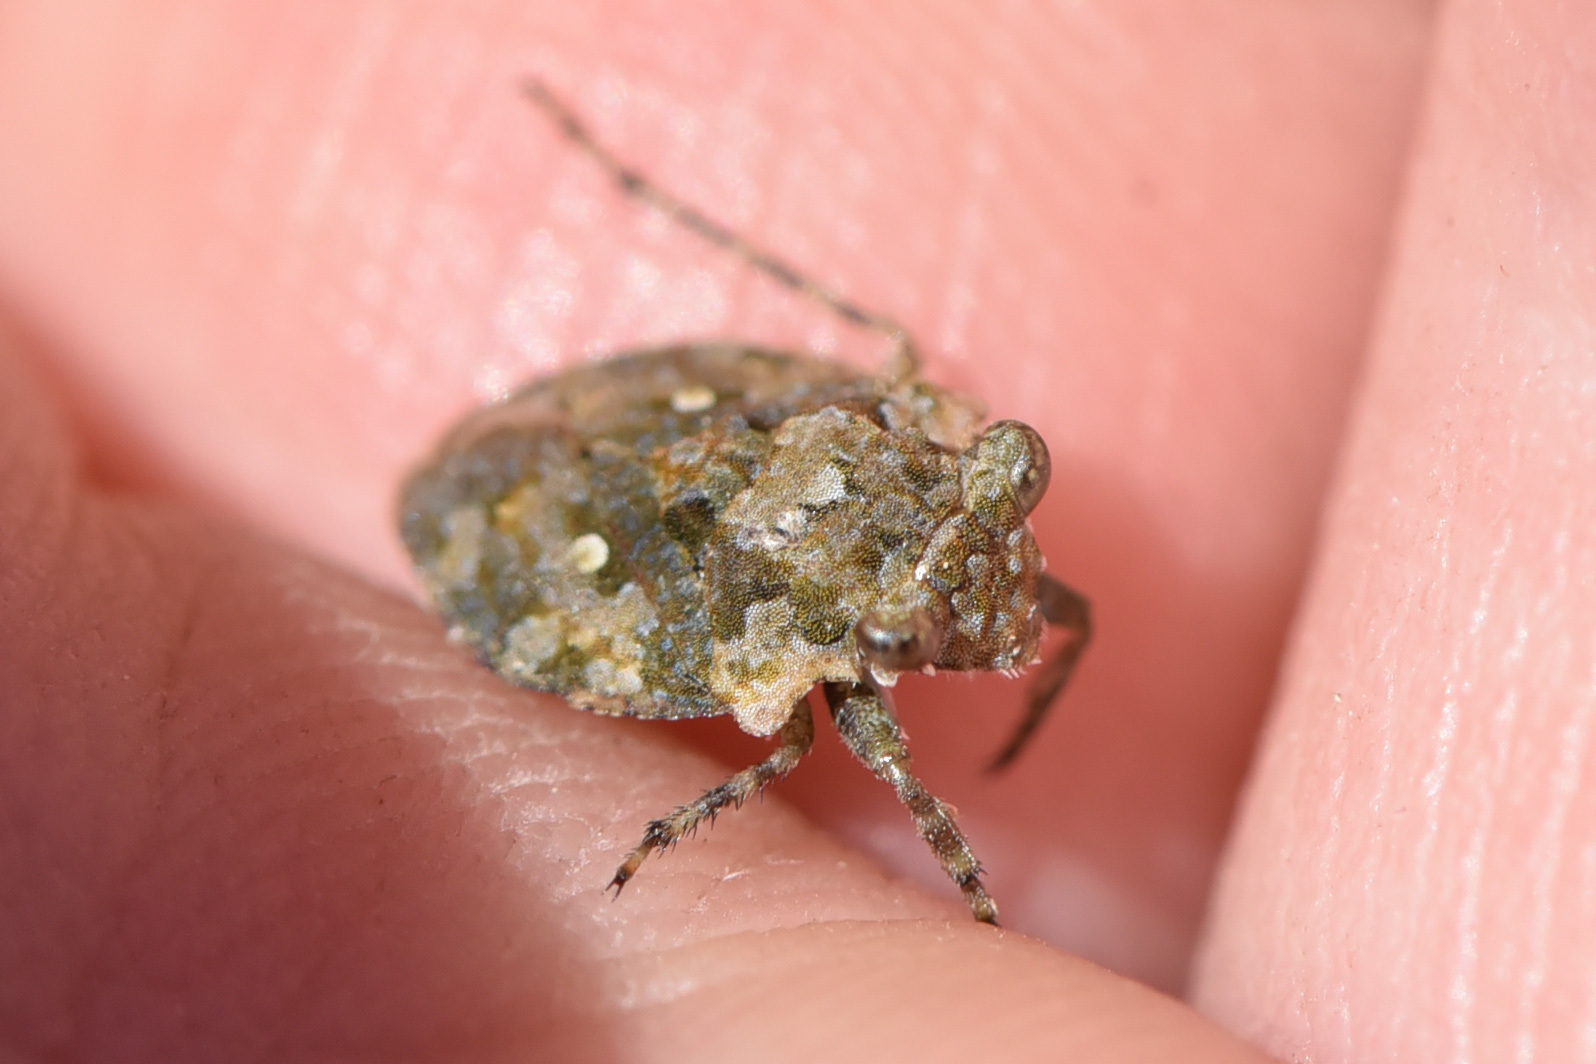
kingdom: Animalia
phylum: Arthropoda
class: Insecta
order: Hemiptera
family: Gelastocoridae
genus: Gelastocoris
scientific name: Gelastocoris oculatus
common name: Toad bug
